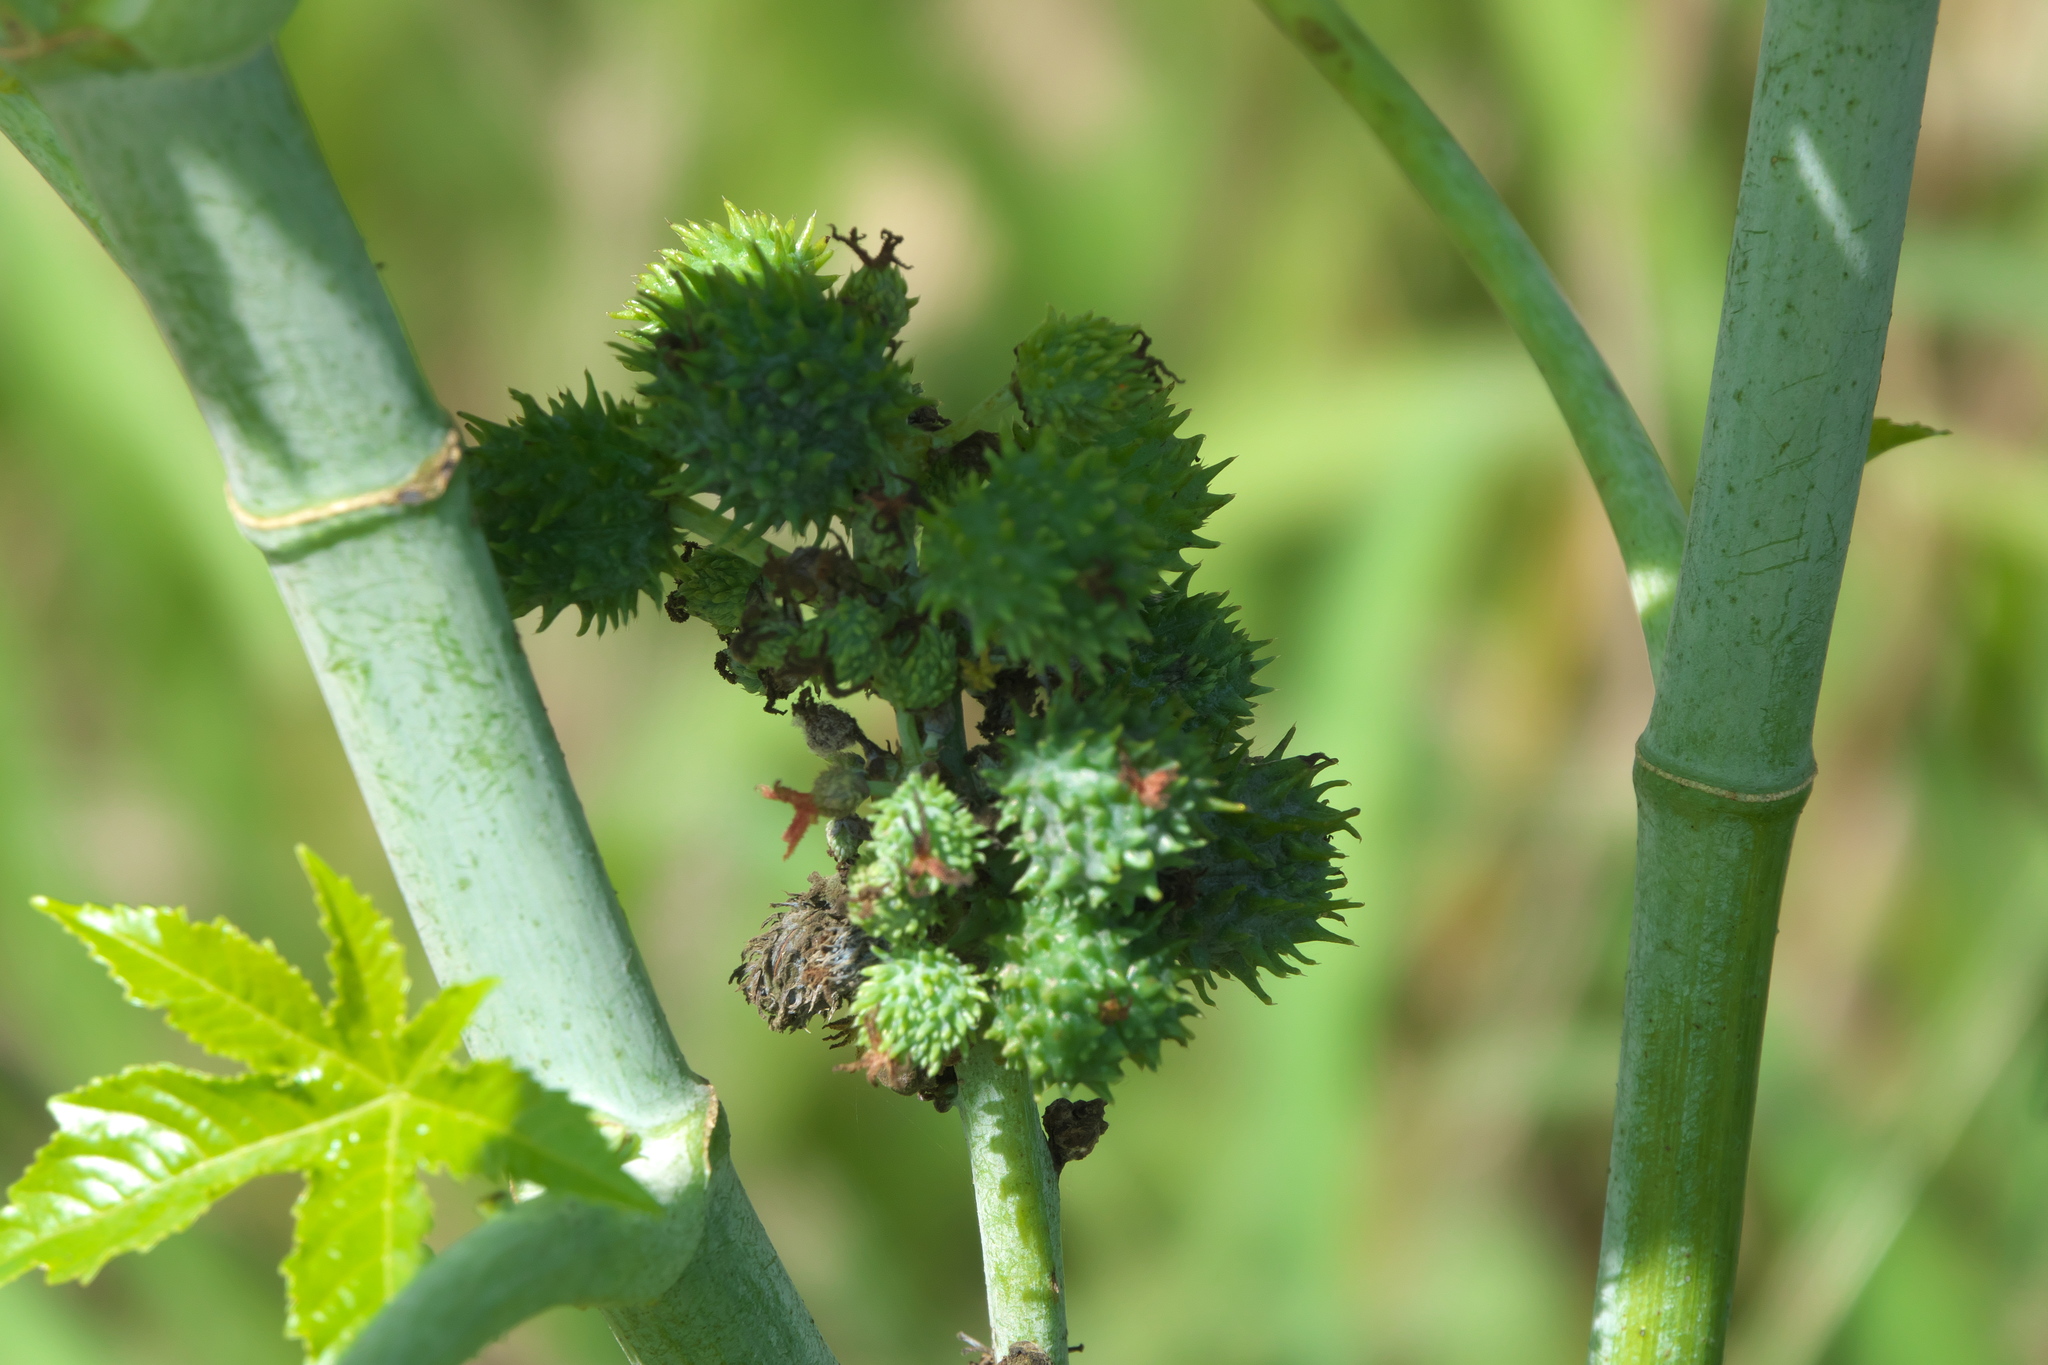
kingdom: Plantae
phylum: Tracheophyta
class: Magnoliopsida
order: Malpighiales
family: Euphorbiaceae
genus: Ricinus
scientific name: Ricinus communis
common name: Castor-oil-plant
